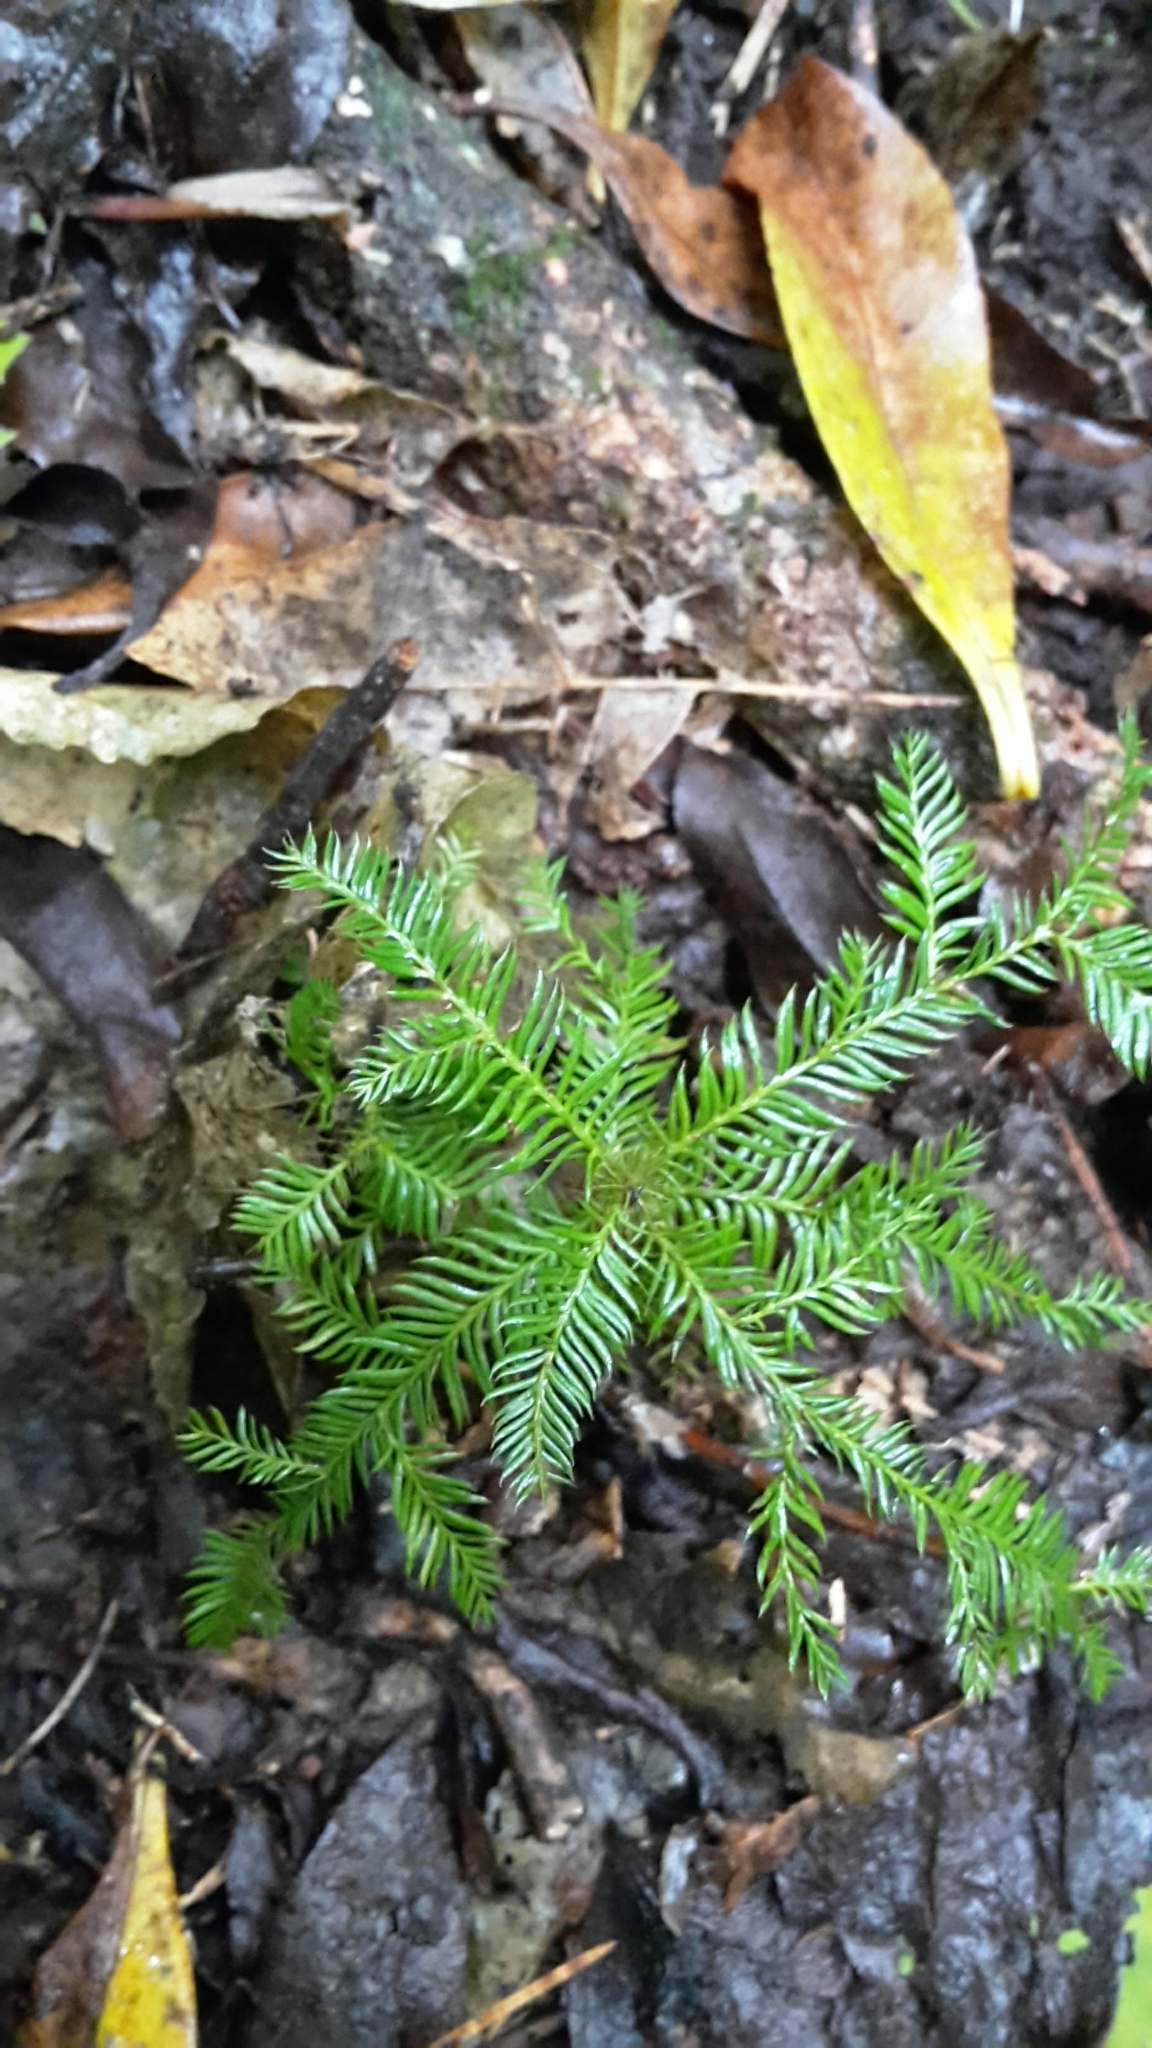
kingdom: Plantae
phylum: Tracheophyta
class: Pinopsida
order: Pinales
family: Podocarpaceae
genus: Dacrycarpus
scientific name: Dacrycarpus dacrydioides
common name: White pine
